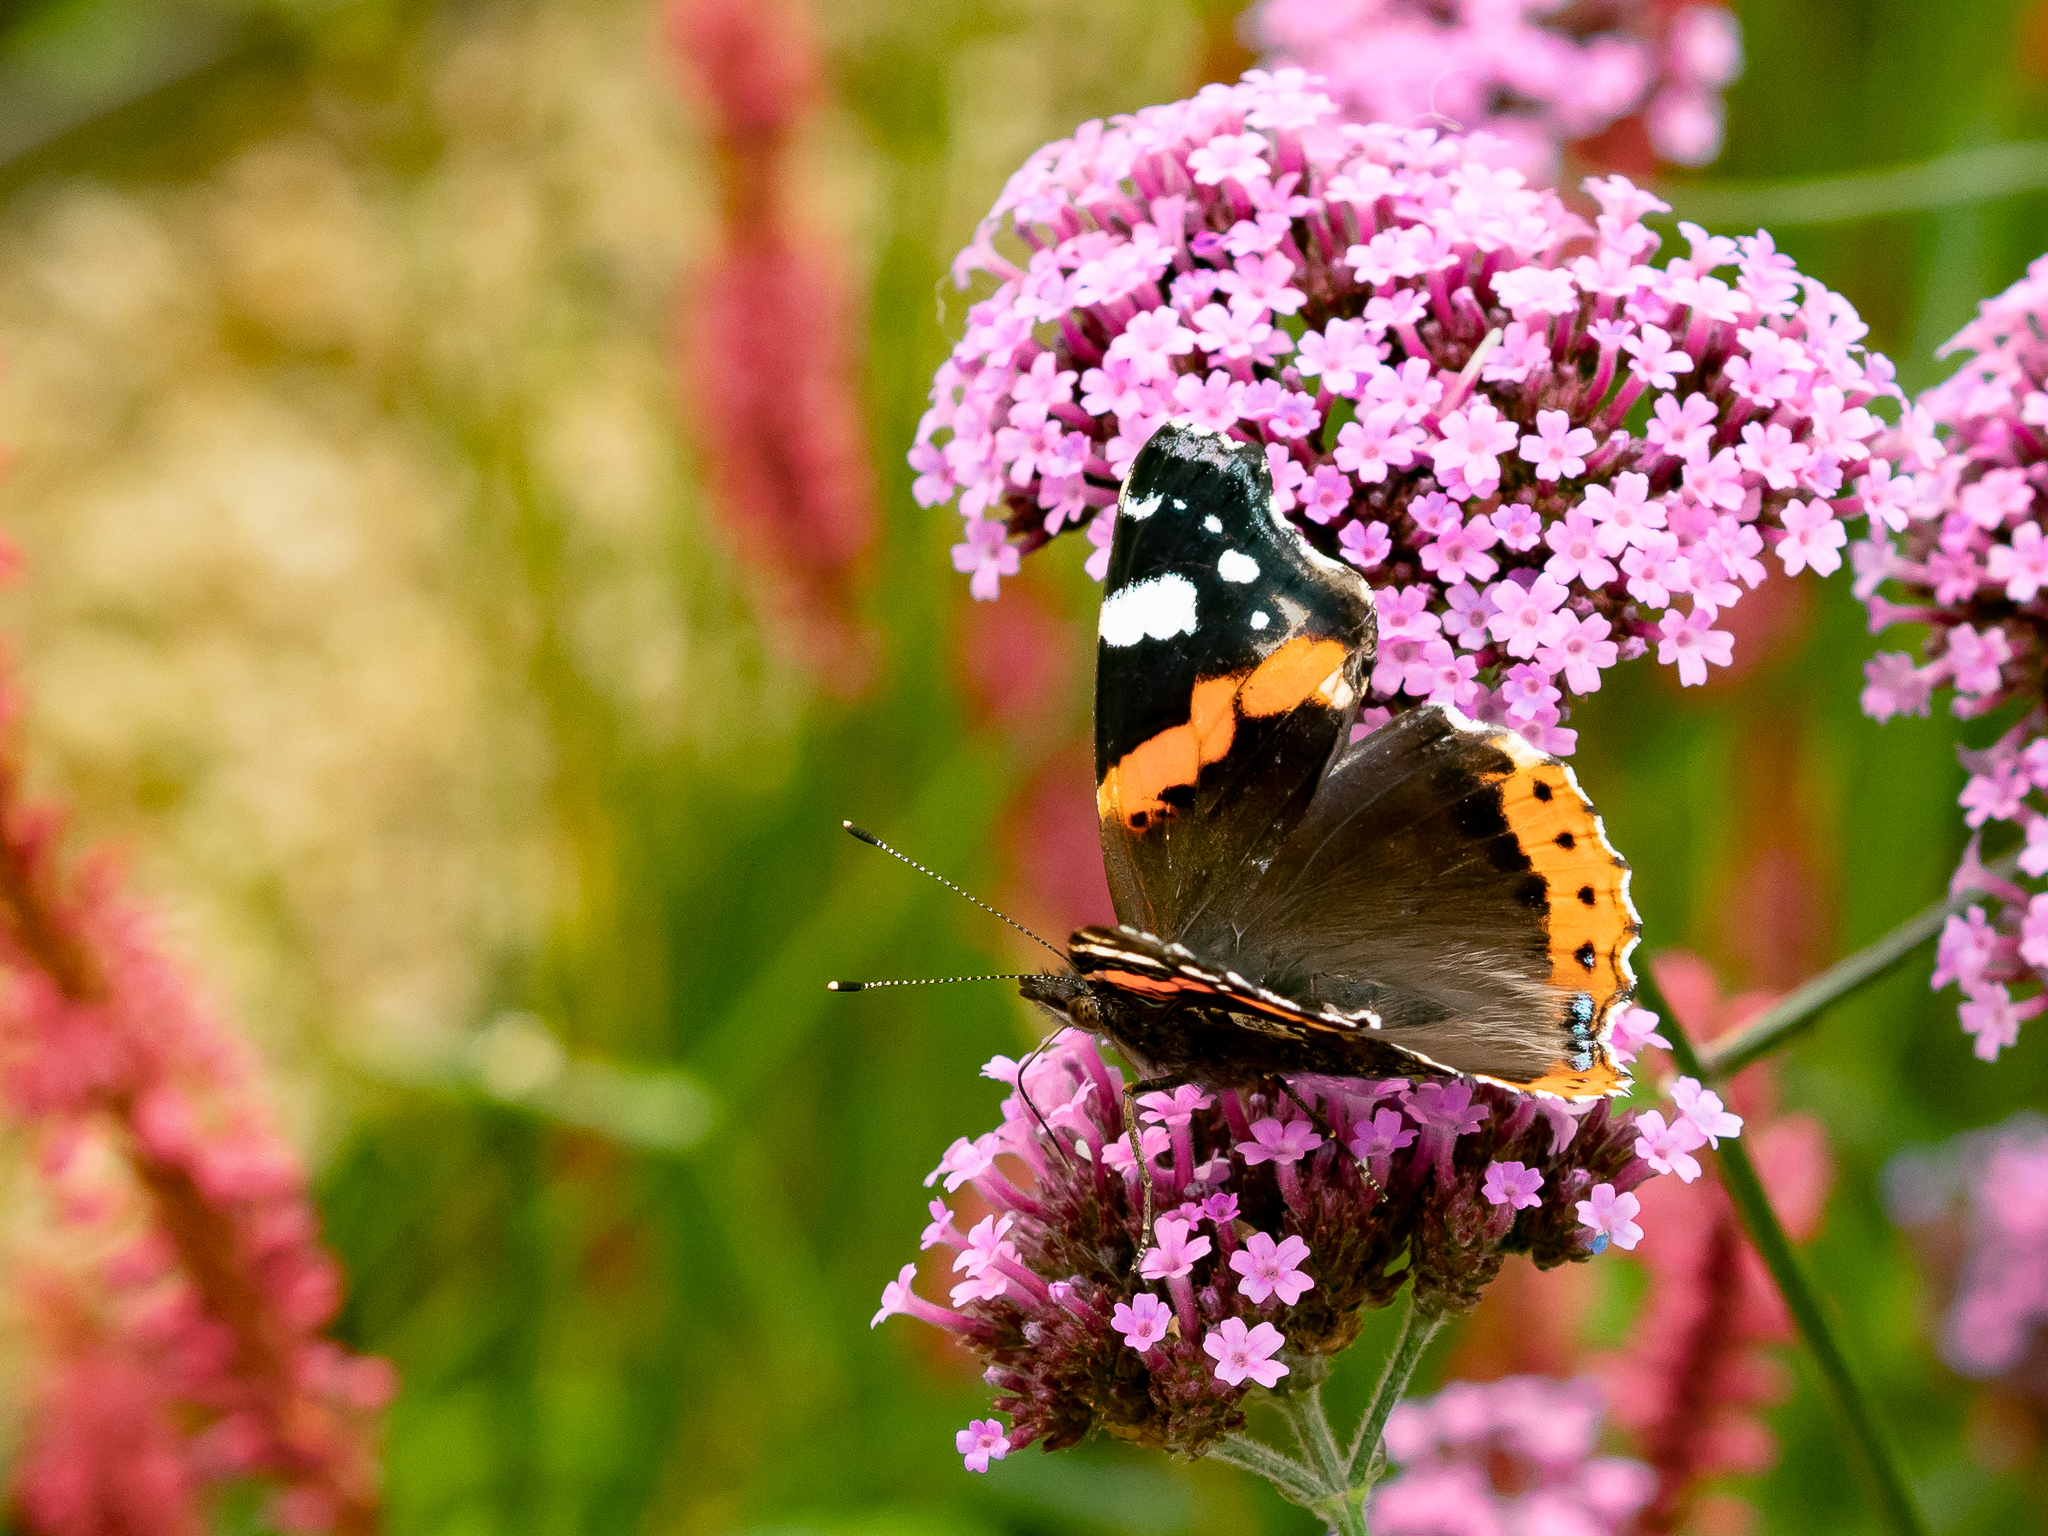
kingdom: Animalia
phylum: Arthropoda
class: Insecta
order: Lepidoptera
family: Nymphalidae
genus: Vanessa
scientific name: Vanessa atalanta
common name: Red admiral
